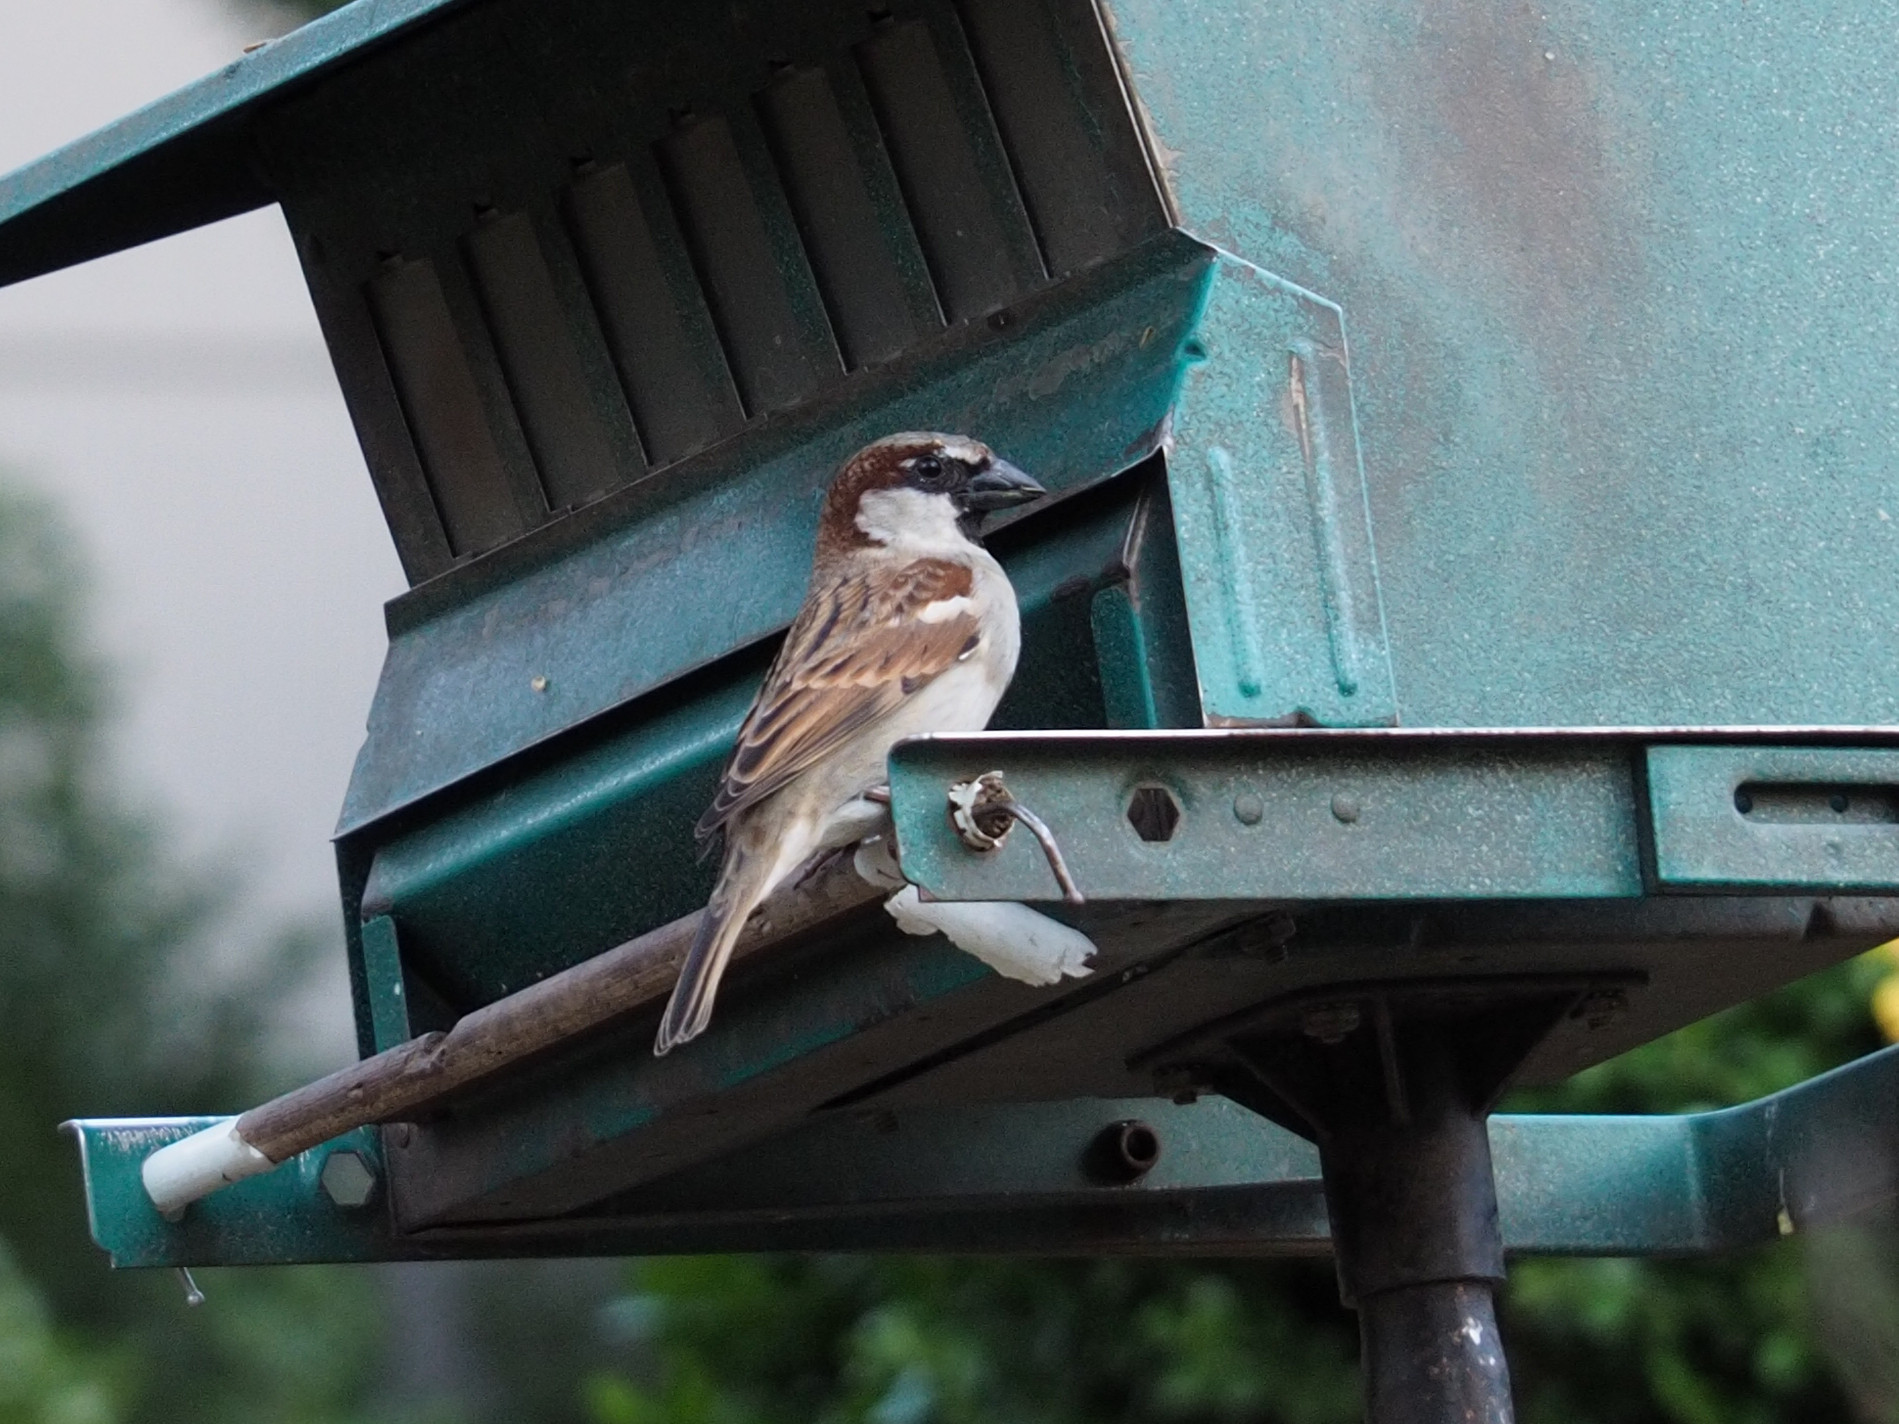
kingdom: Animalia
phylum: Chordata
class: Aves
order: Passeriformes
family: Passeridae
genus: Passer
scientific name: Passer domesticus
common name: House sparrow
